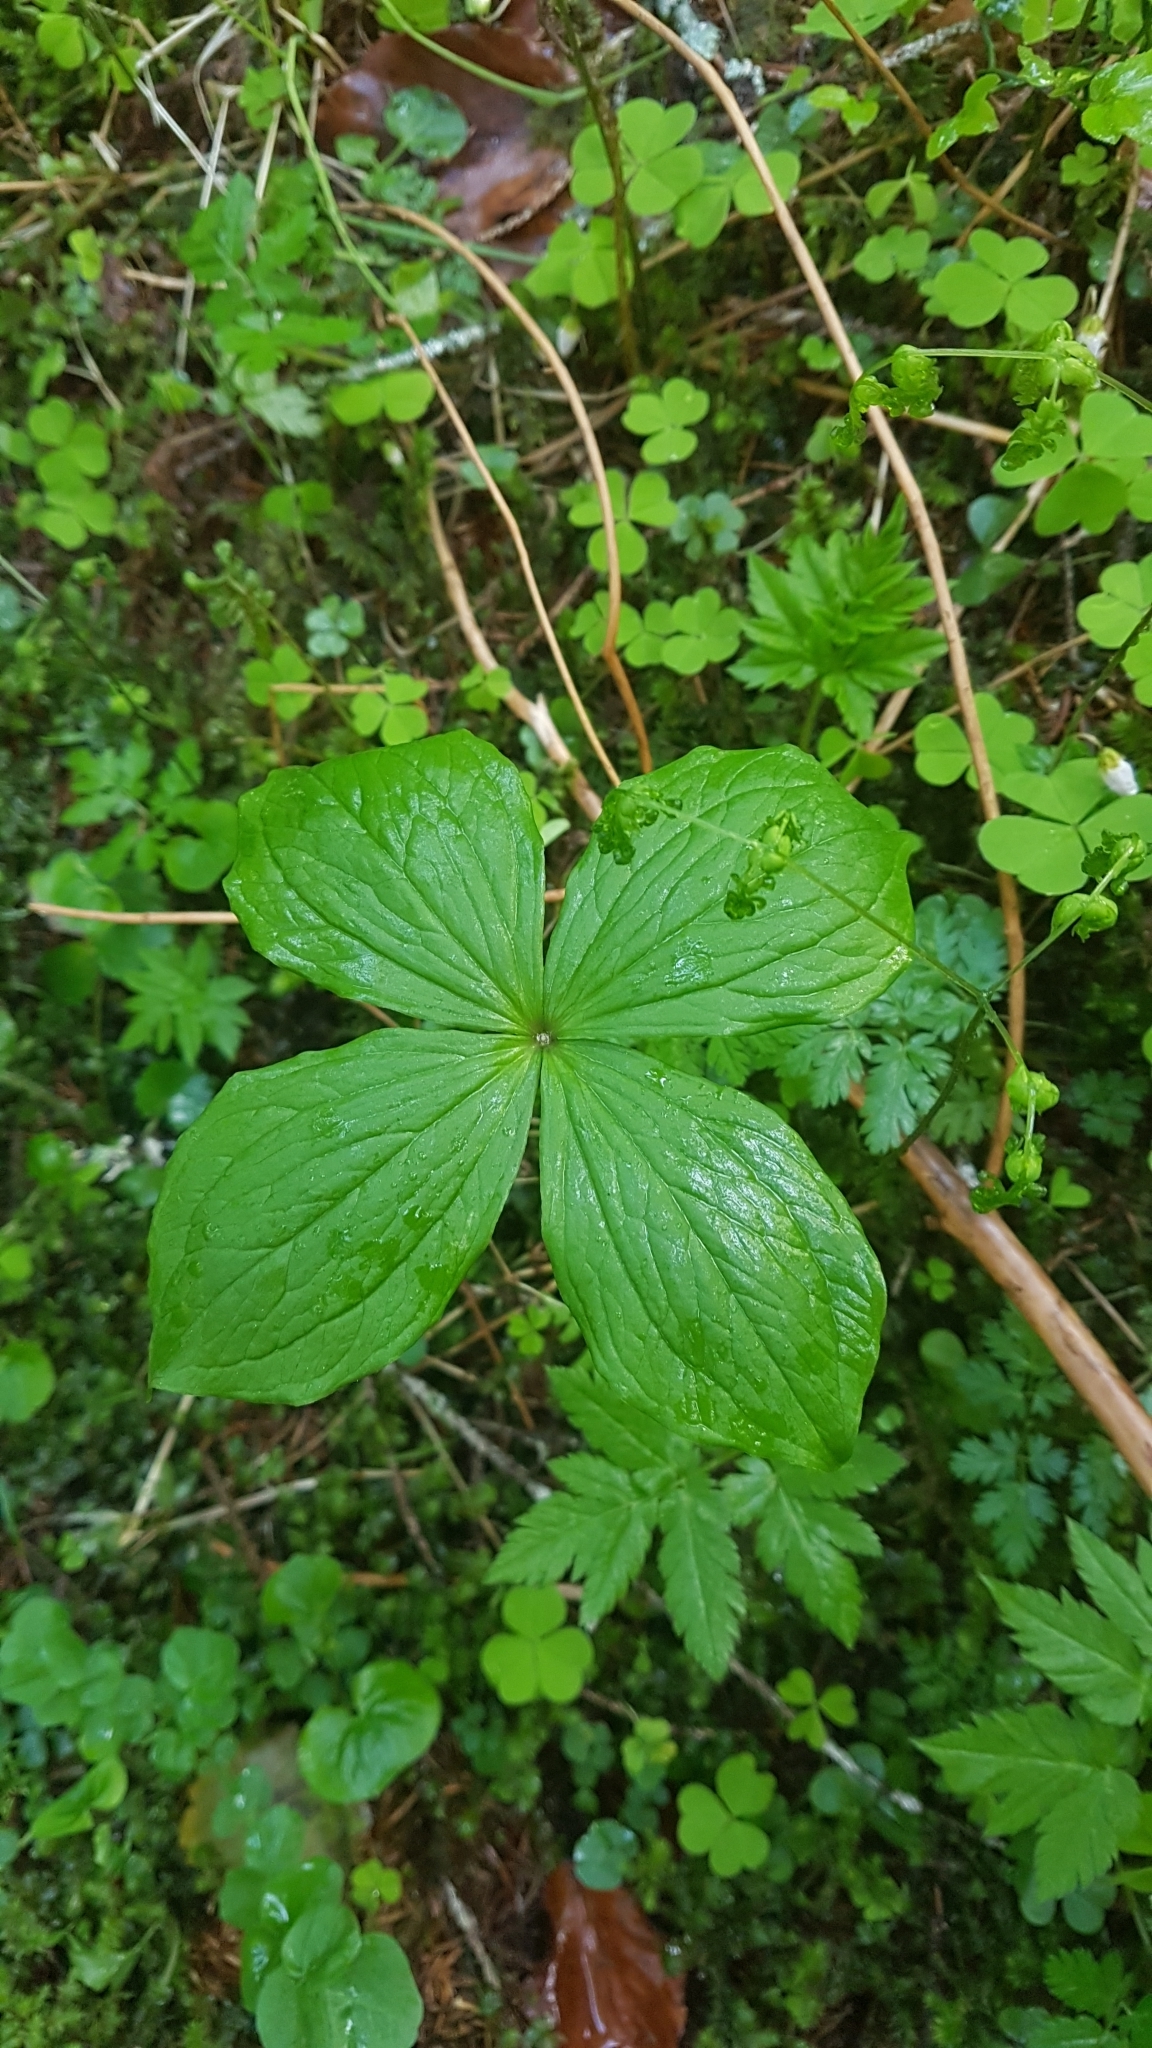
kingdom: Plantae
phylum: Tracheophyta
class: Liliopsida
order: Liliales
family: Melanthiaceae
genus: Paris
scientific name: Paris quadrifolia
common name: Herb-paris
